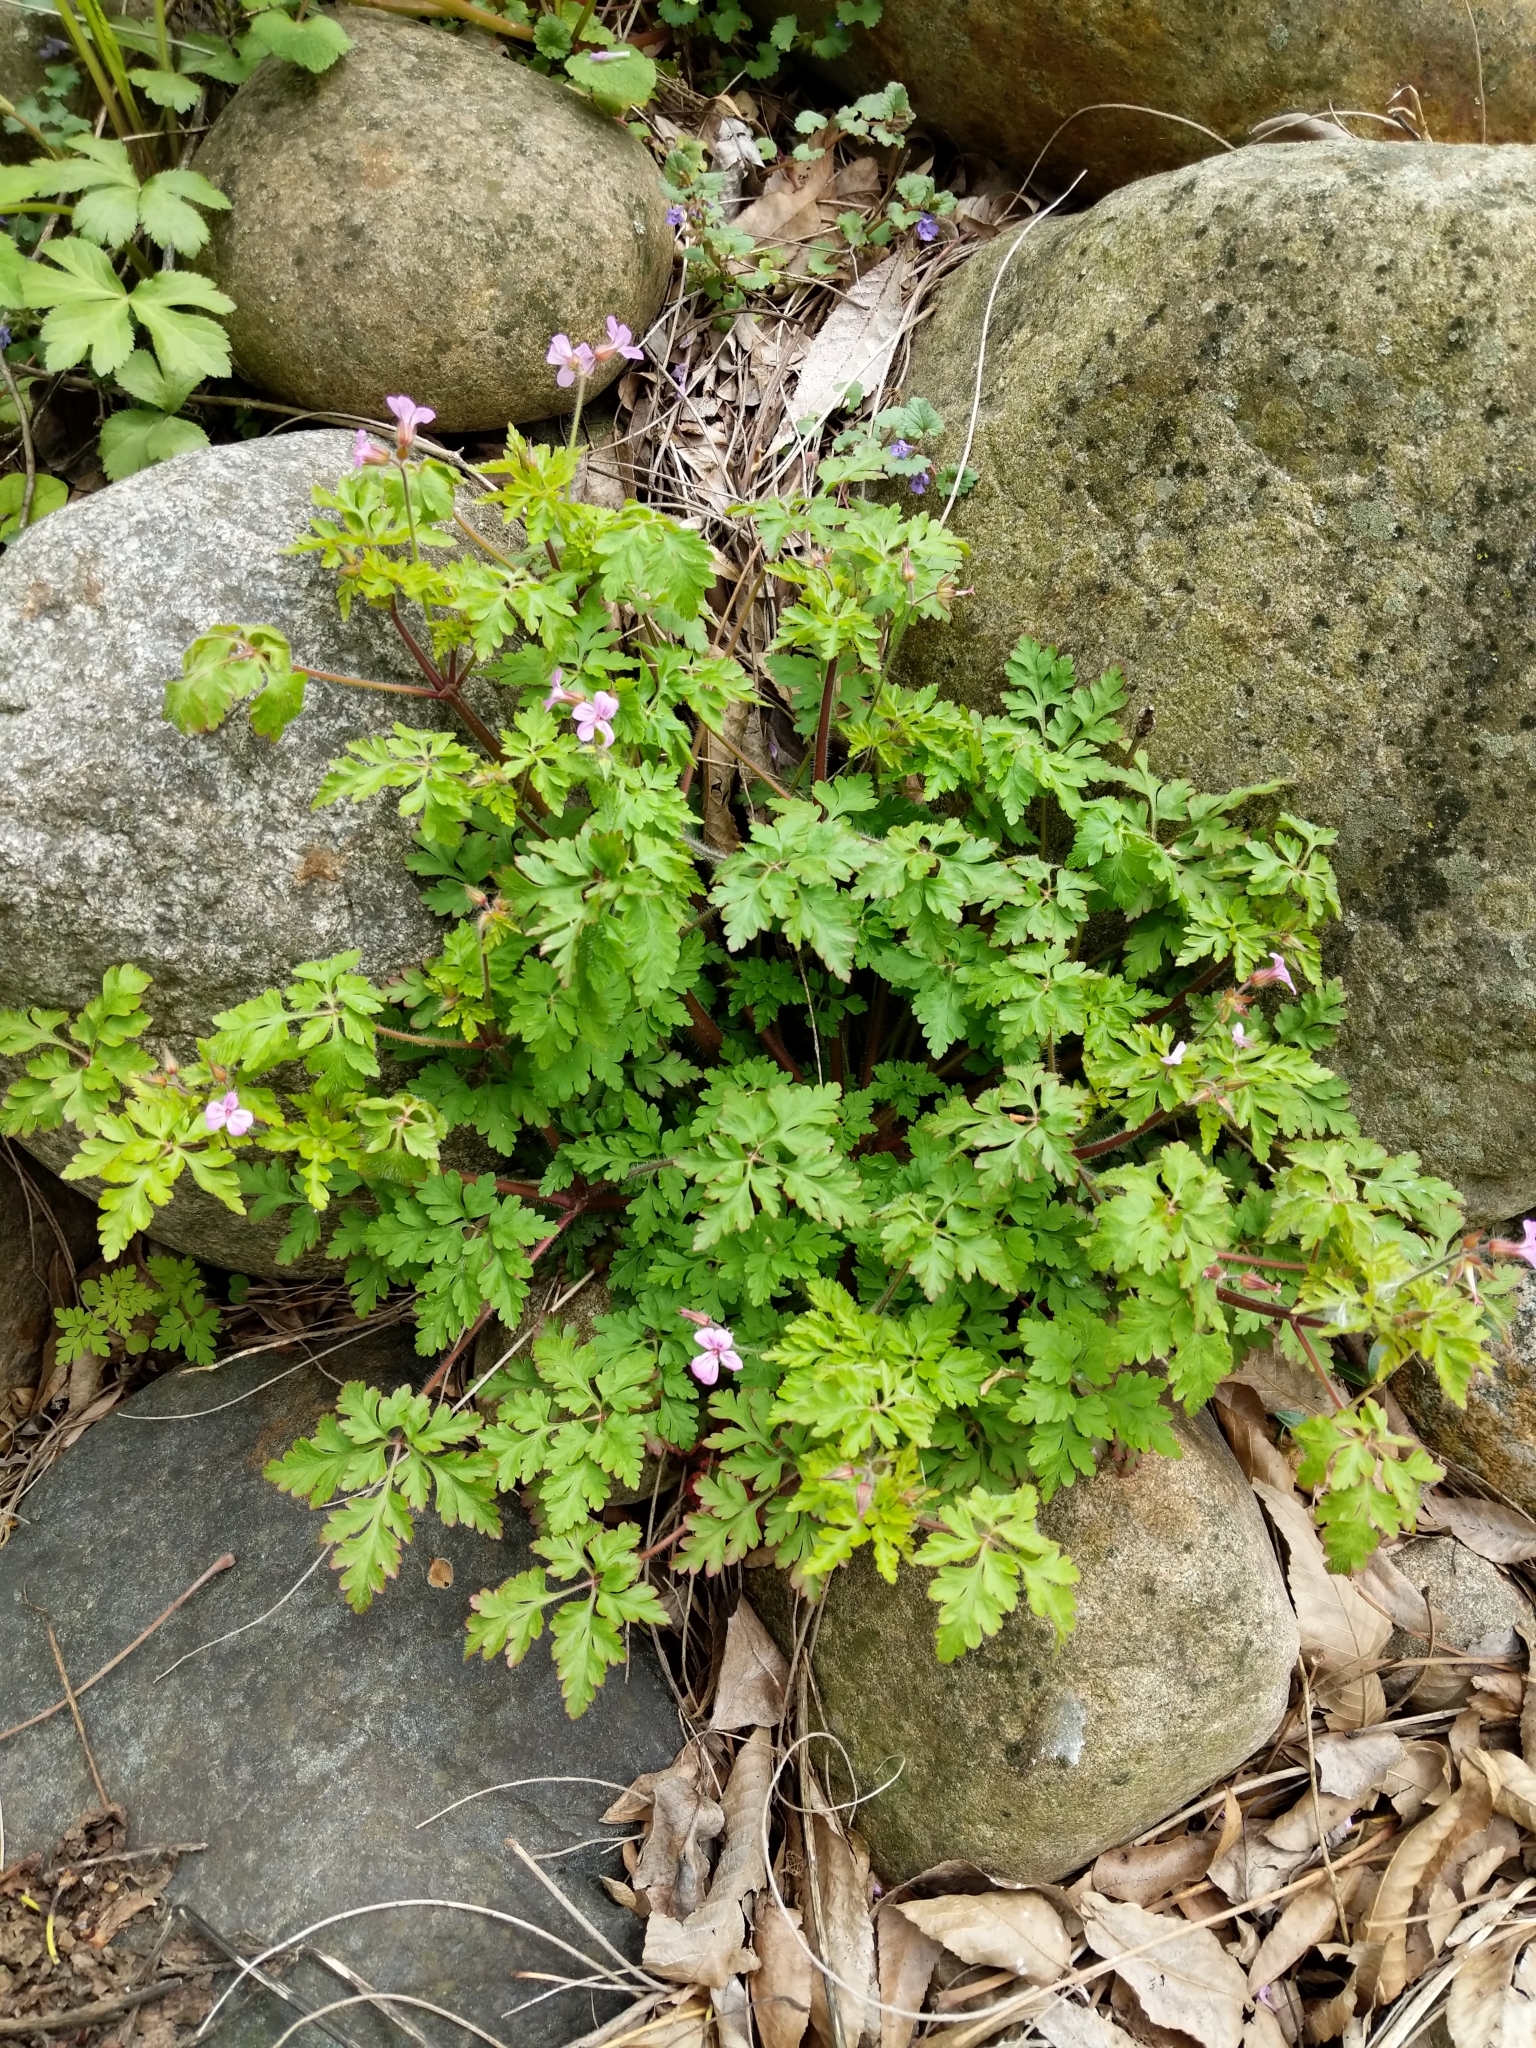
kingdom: Plantae
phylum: Tracheophyta
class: Magnoliopsida
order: Geraniales
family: Geraniaceae
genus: Geranium
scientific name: Geranium robertianum
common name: Herb-robert
